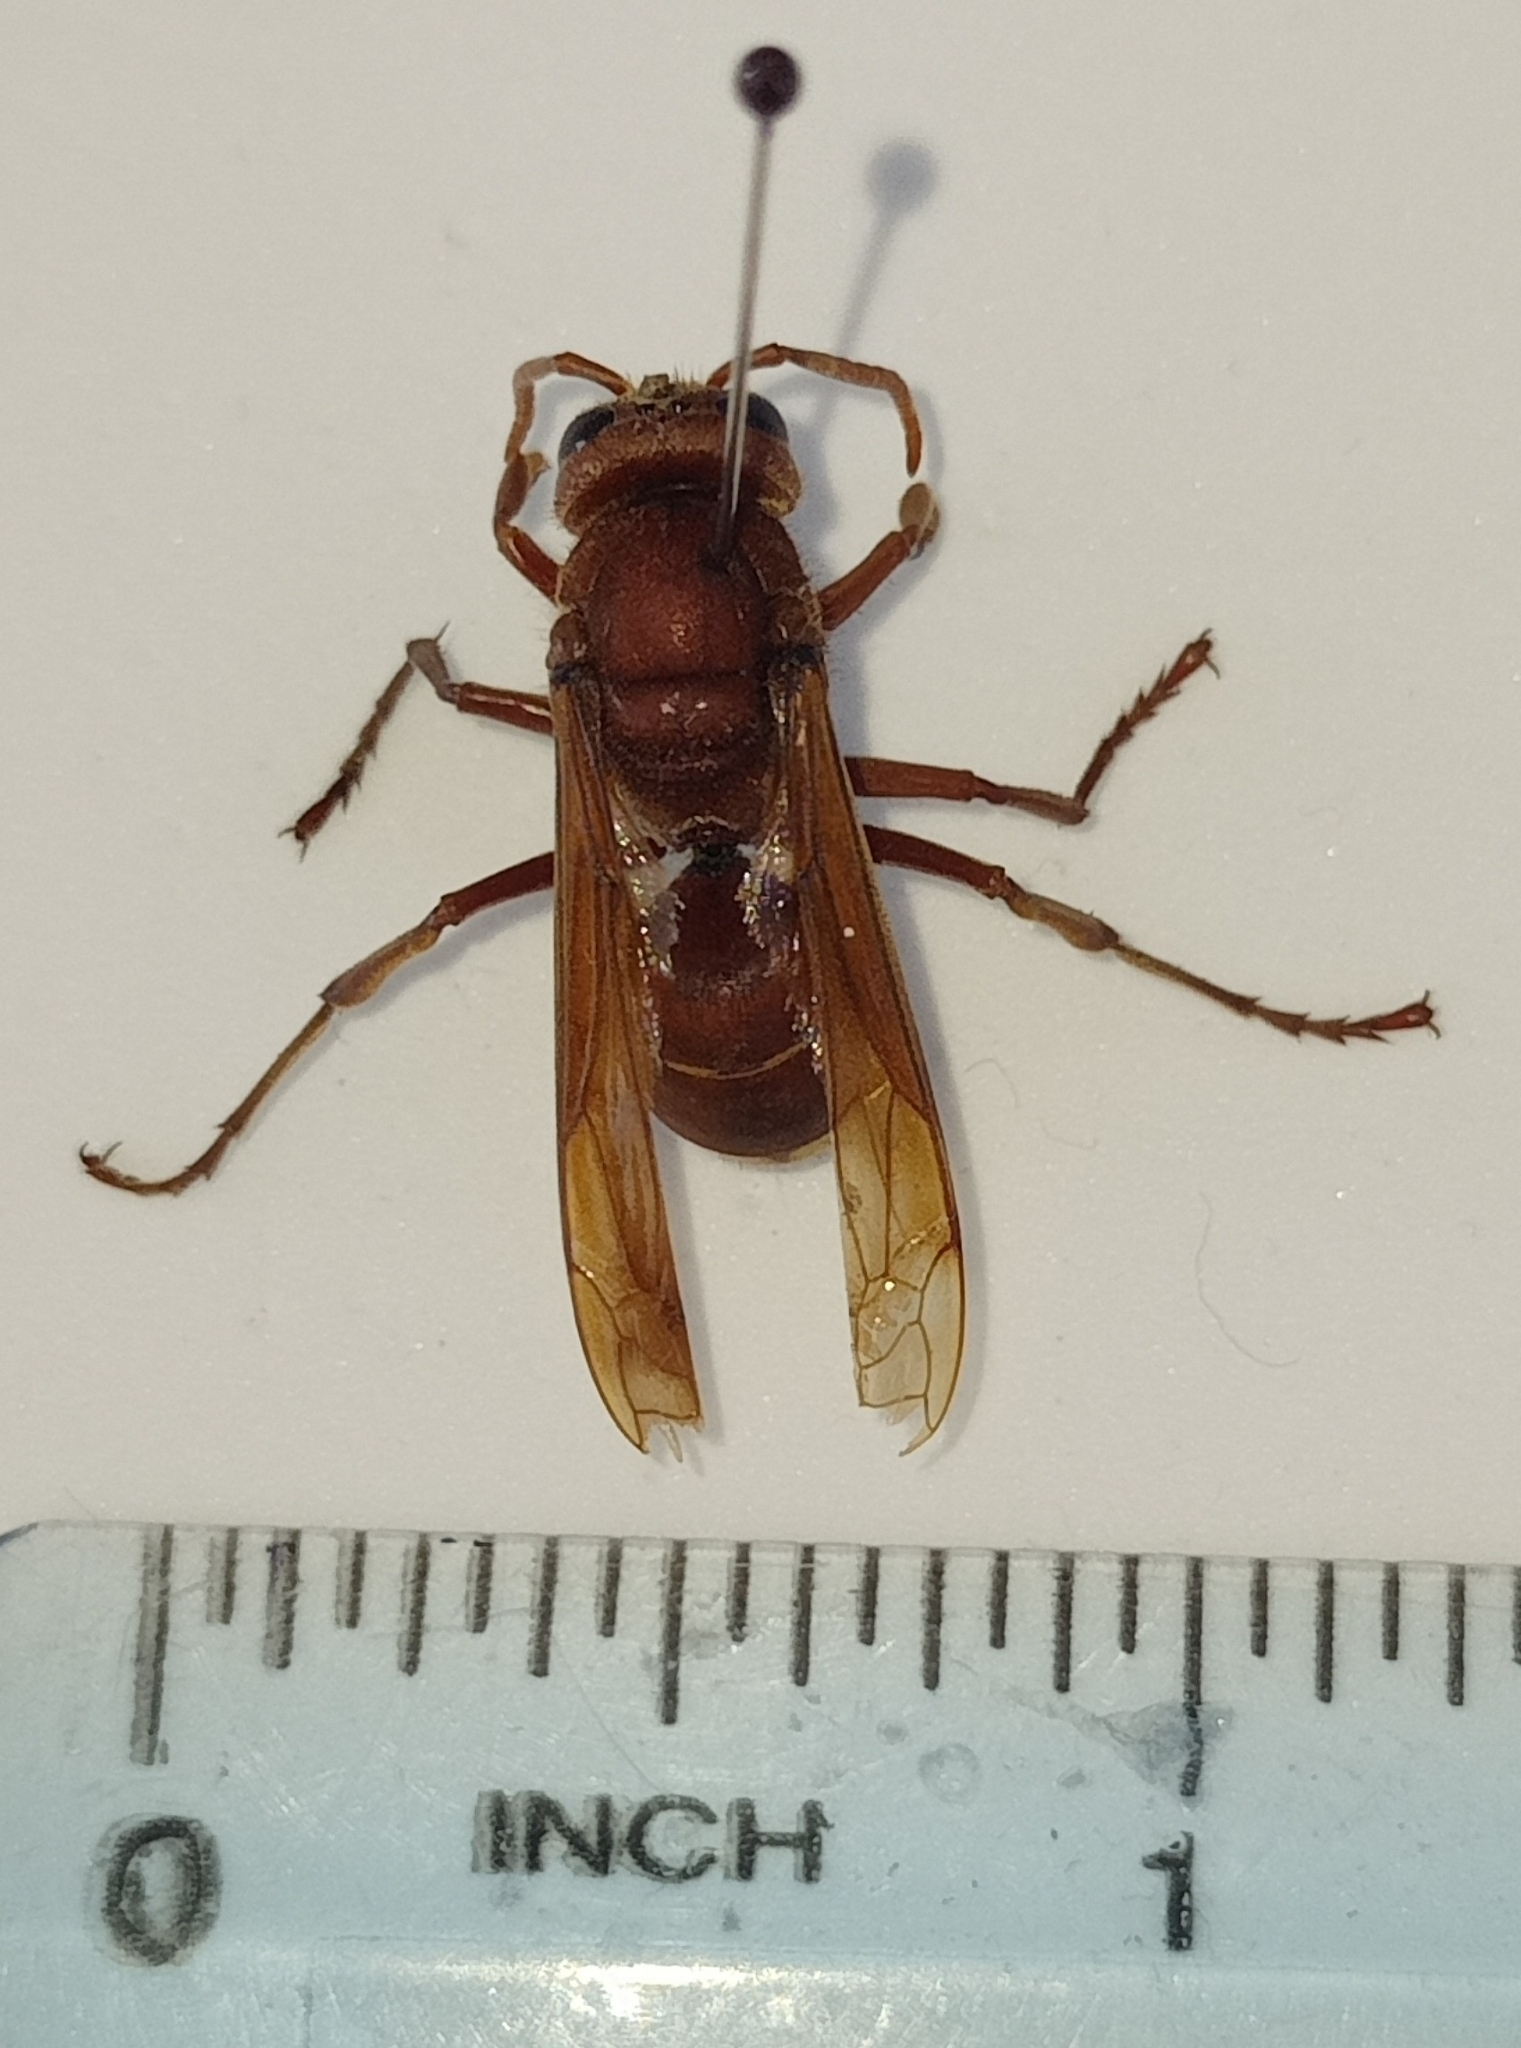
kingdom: Animalia
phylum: Arthropoda
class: Insecta
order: Hymenoptera
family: Vespidae
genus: Vespa
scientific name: Vespa orientalis
